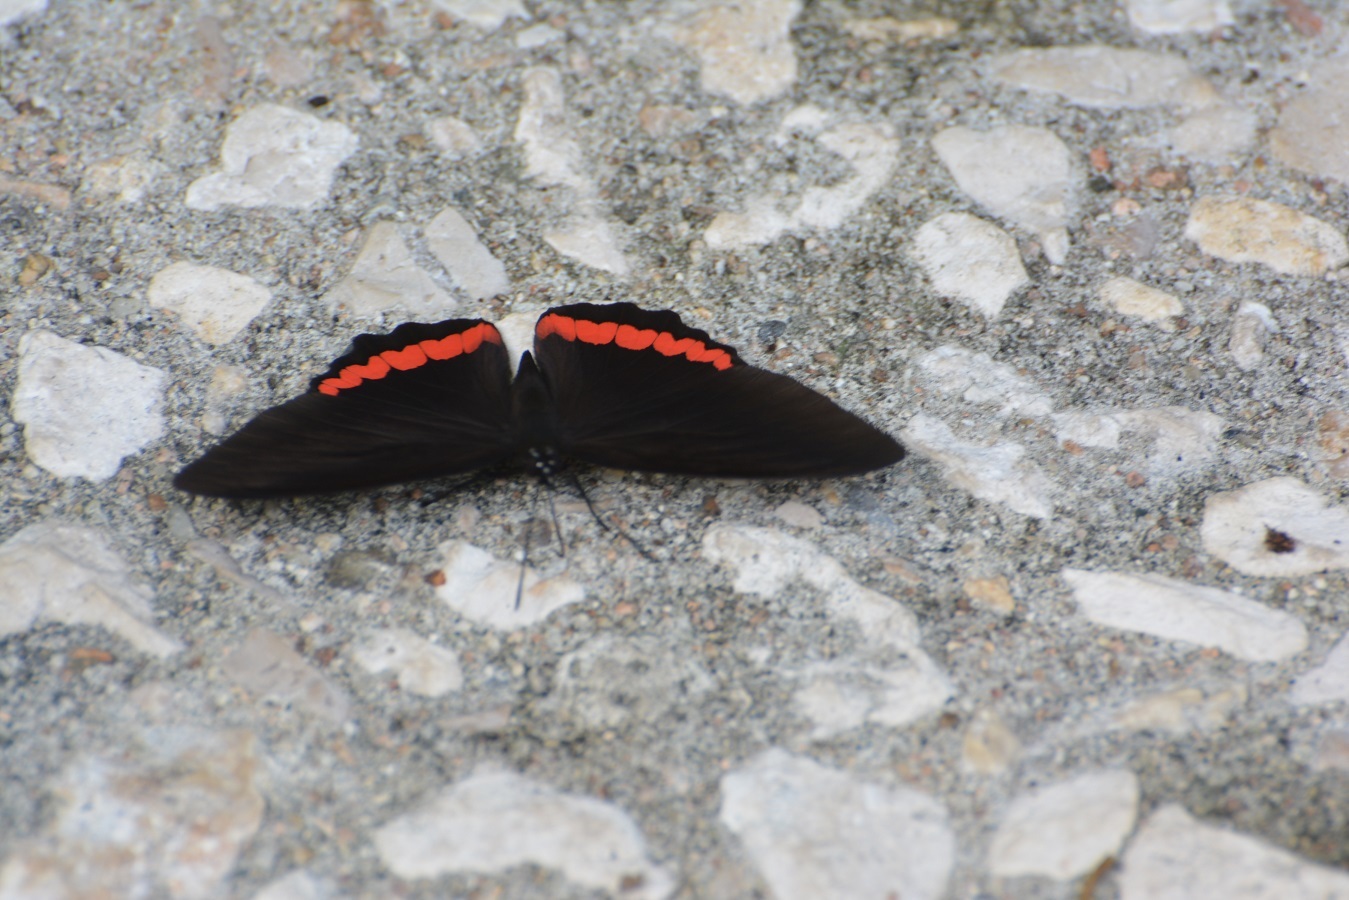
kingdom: Animalia
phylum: Arthropoda
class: Insecta
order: Lepidoptera
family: Nymphalidae
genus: Biblis
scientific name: Biblis aganisa
